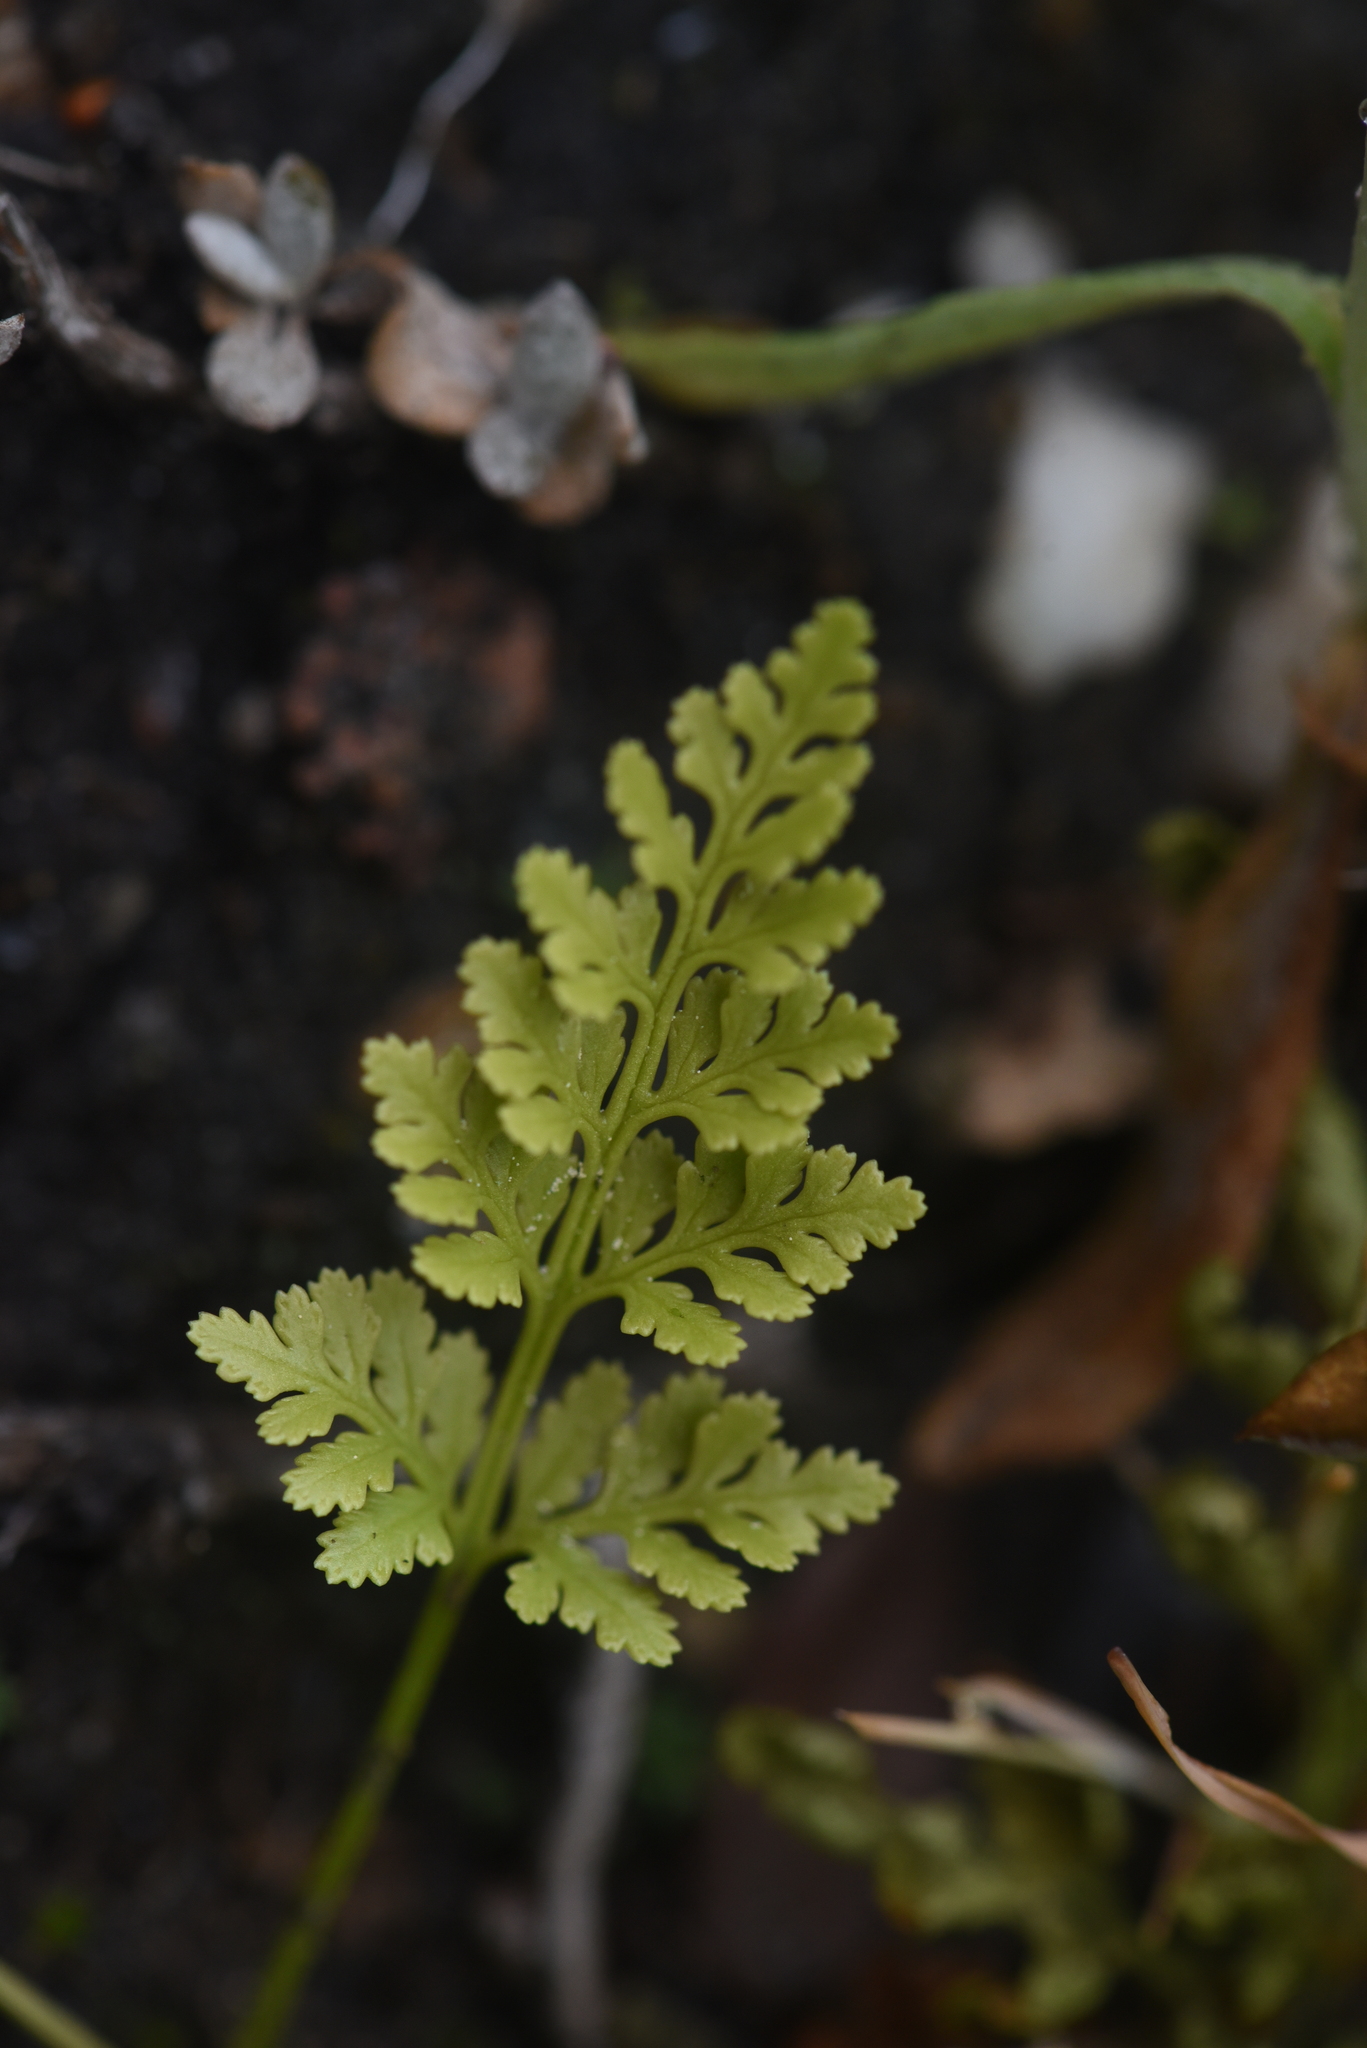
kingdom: Plantae
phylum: Tracheophyta
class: Polypodiopsida
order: Polypodiales
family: Pteridaceae
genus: Cryptogramma
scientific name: Cryptogramma acrostichoides
